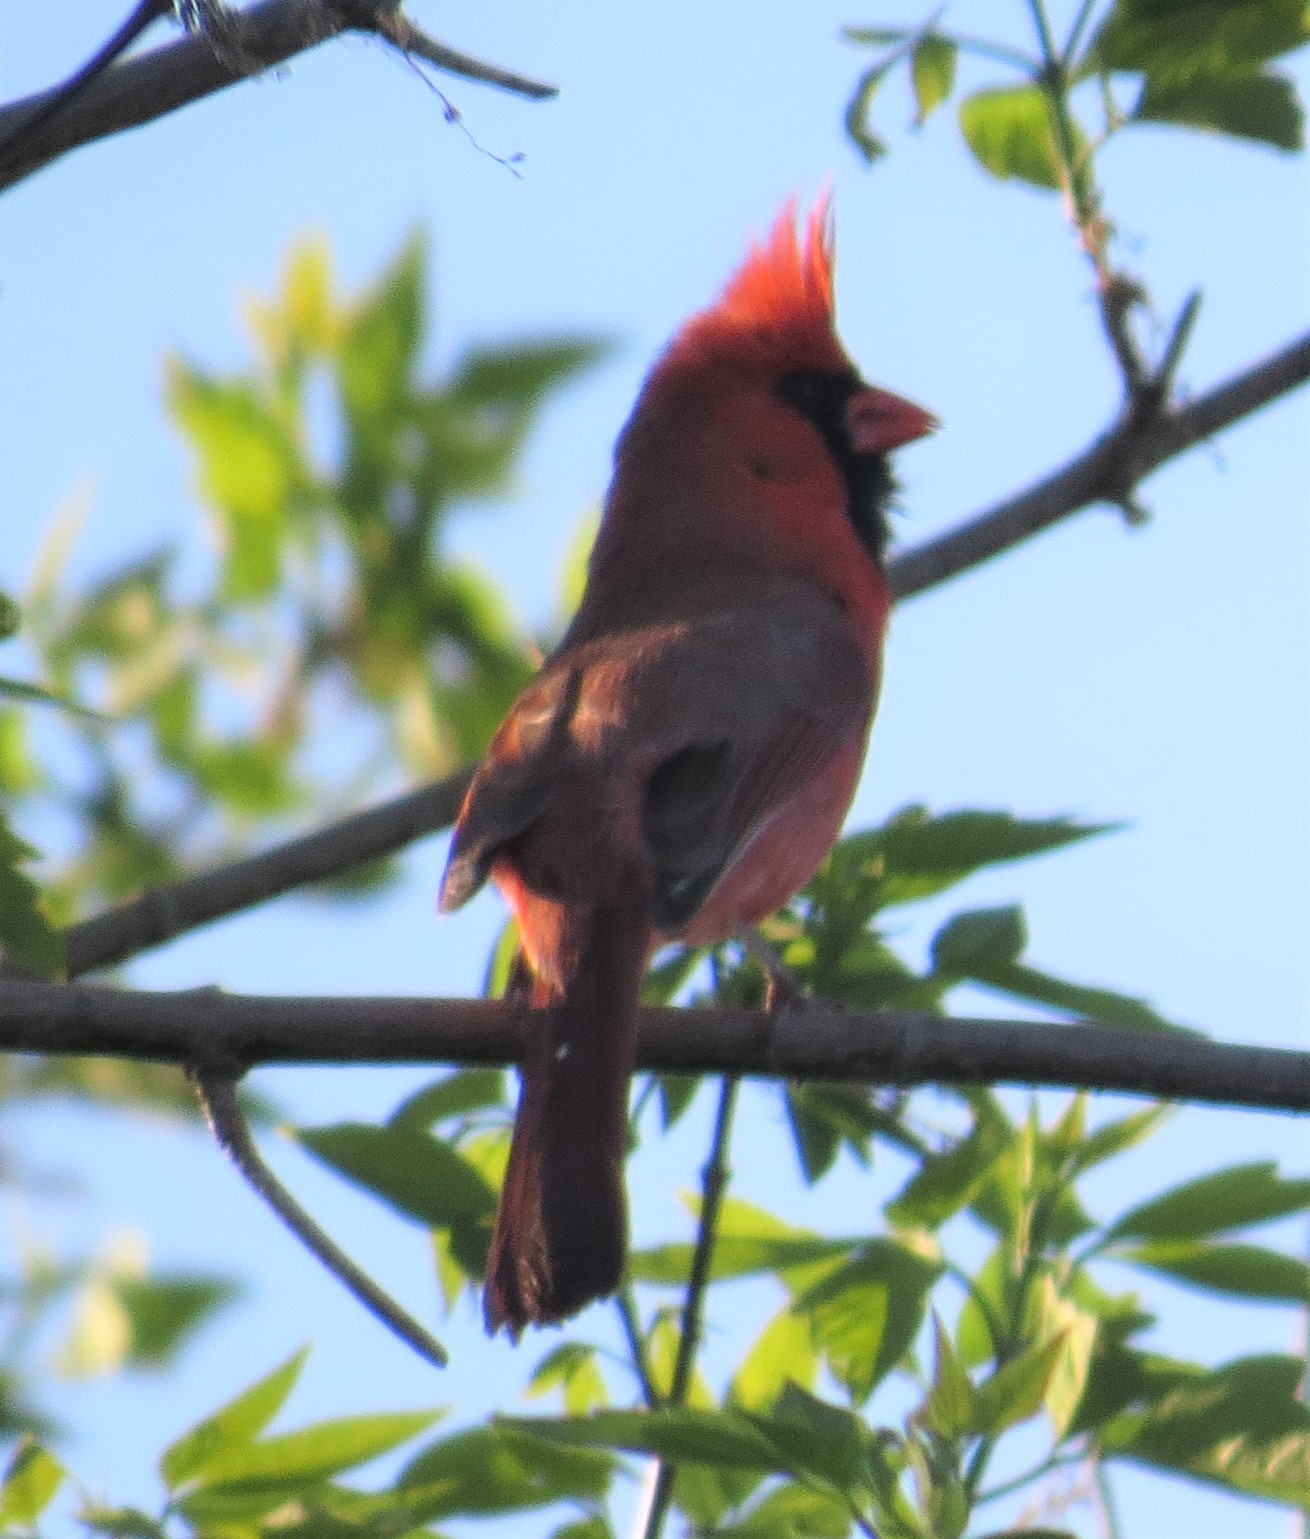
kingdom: Animalia
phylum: Chordata
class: Aves
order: Passeriformes
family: Cardinalidae
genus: Cardinalis
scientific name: Cardinalis cardinalis
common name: Northern cardinal
